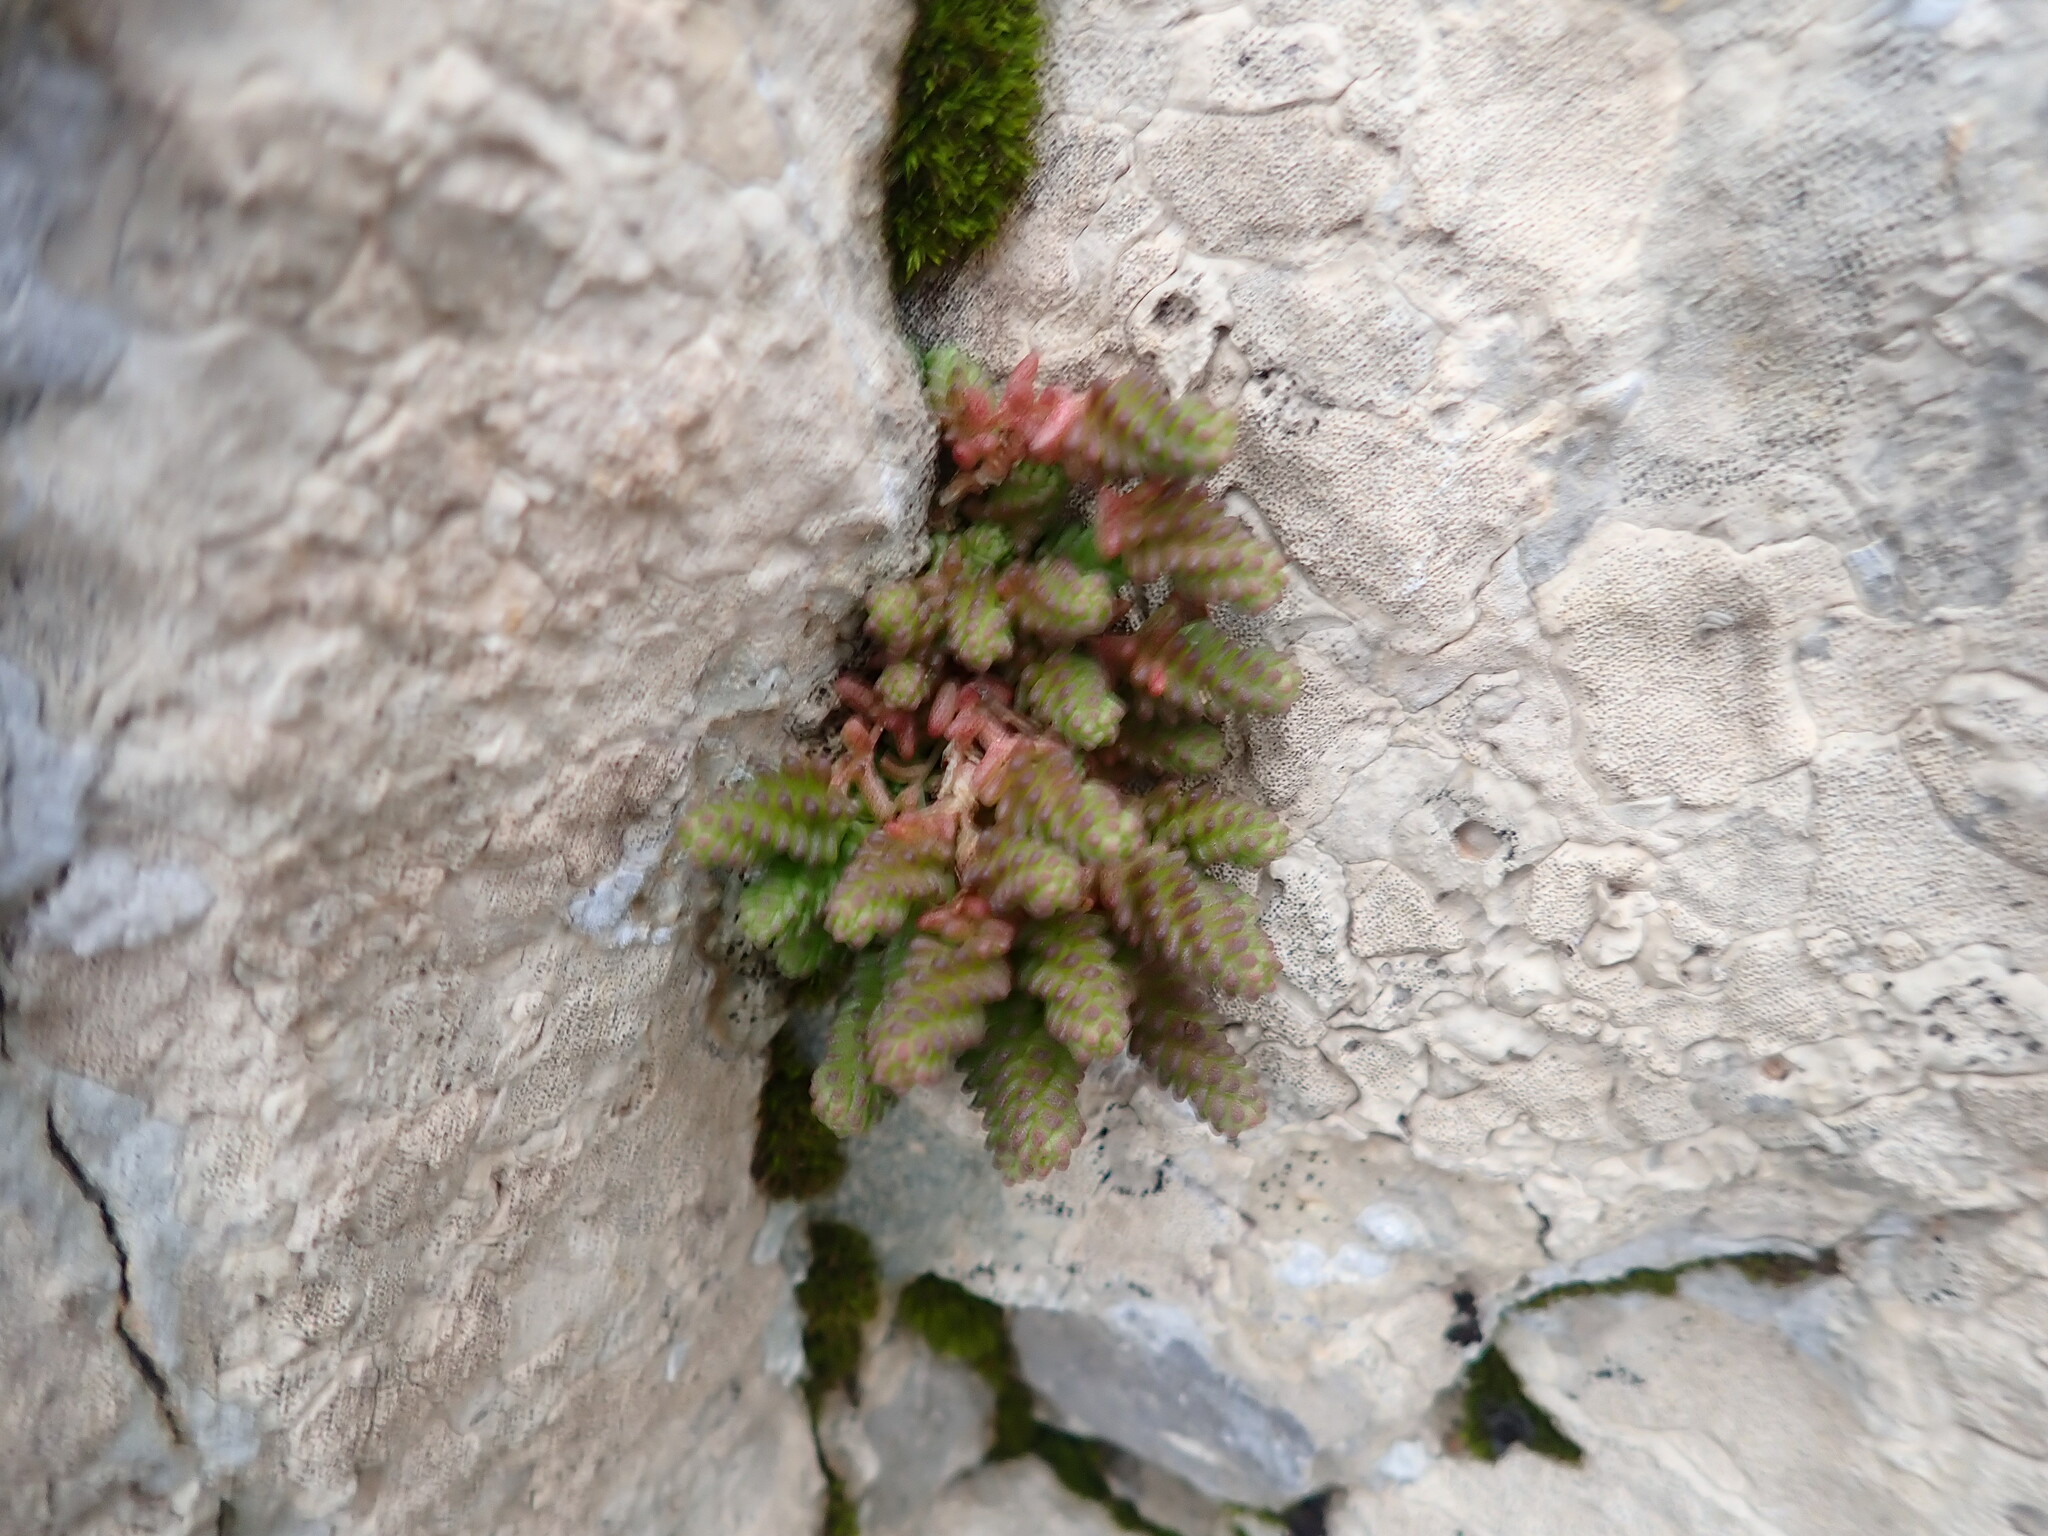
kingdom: Plantae
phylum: Tracheophyta
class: Magnoliopsida
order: Saxifragales
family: Crassulaceae
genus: Sedum
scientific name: Sedum acre
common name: Biting stonecrop
